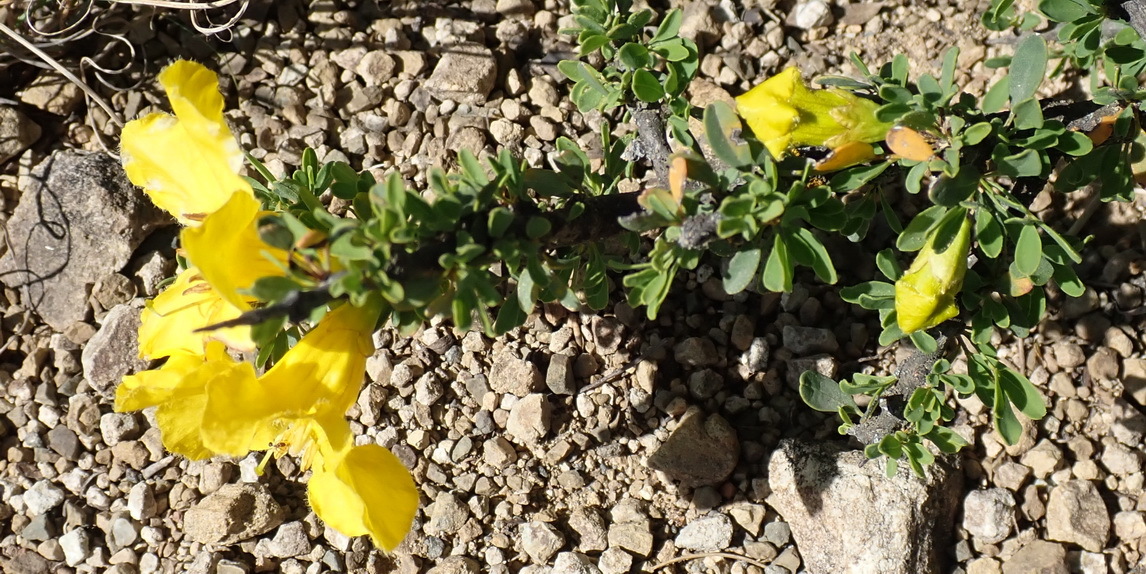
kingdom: Plantae
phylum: Tracheophyta
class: Magnoliopsida
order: Lamiales
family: Bignoniaceae
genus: Rhigozum
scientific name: Rhigozum obovatum
